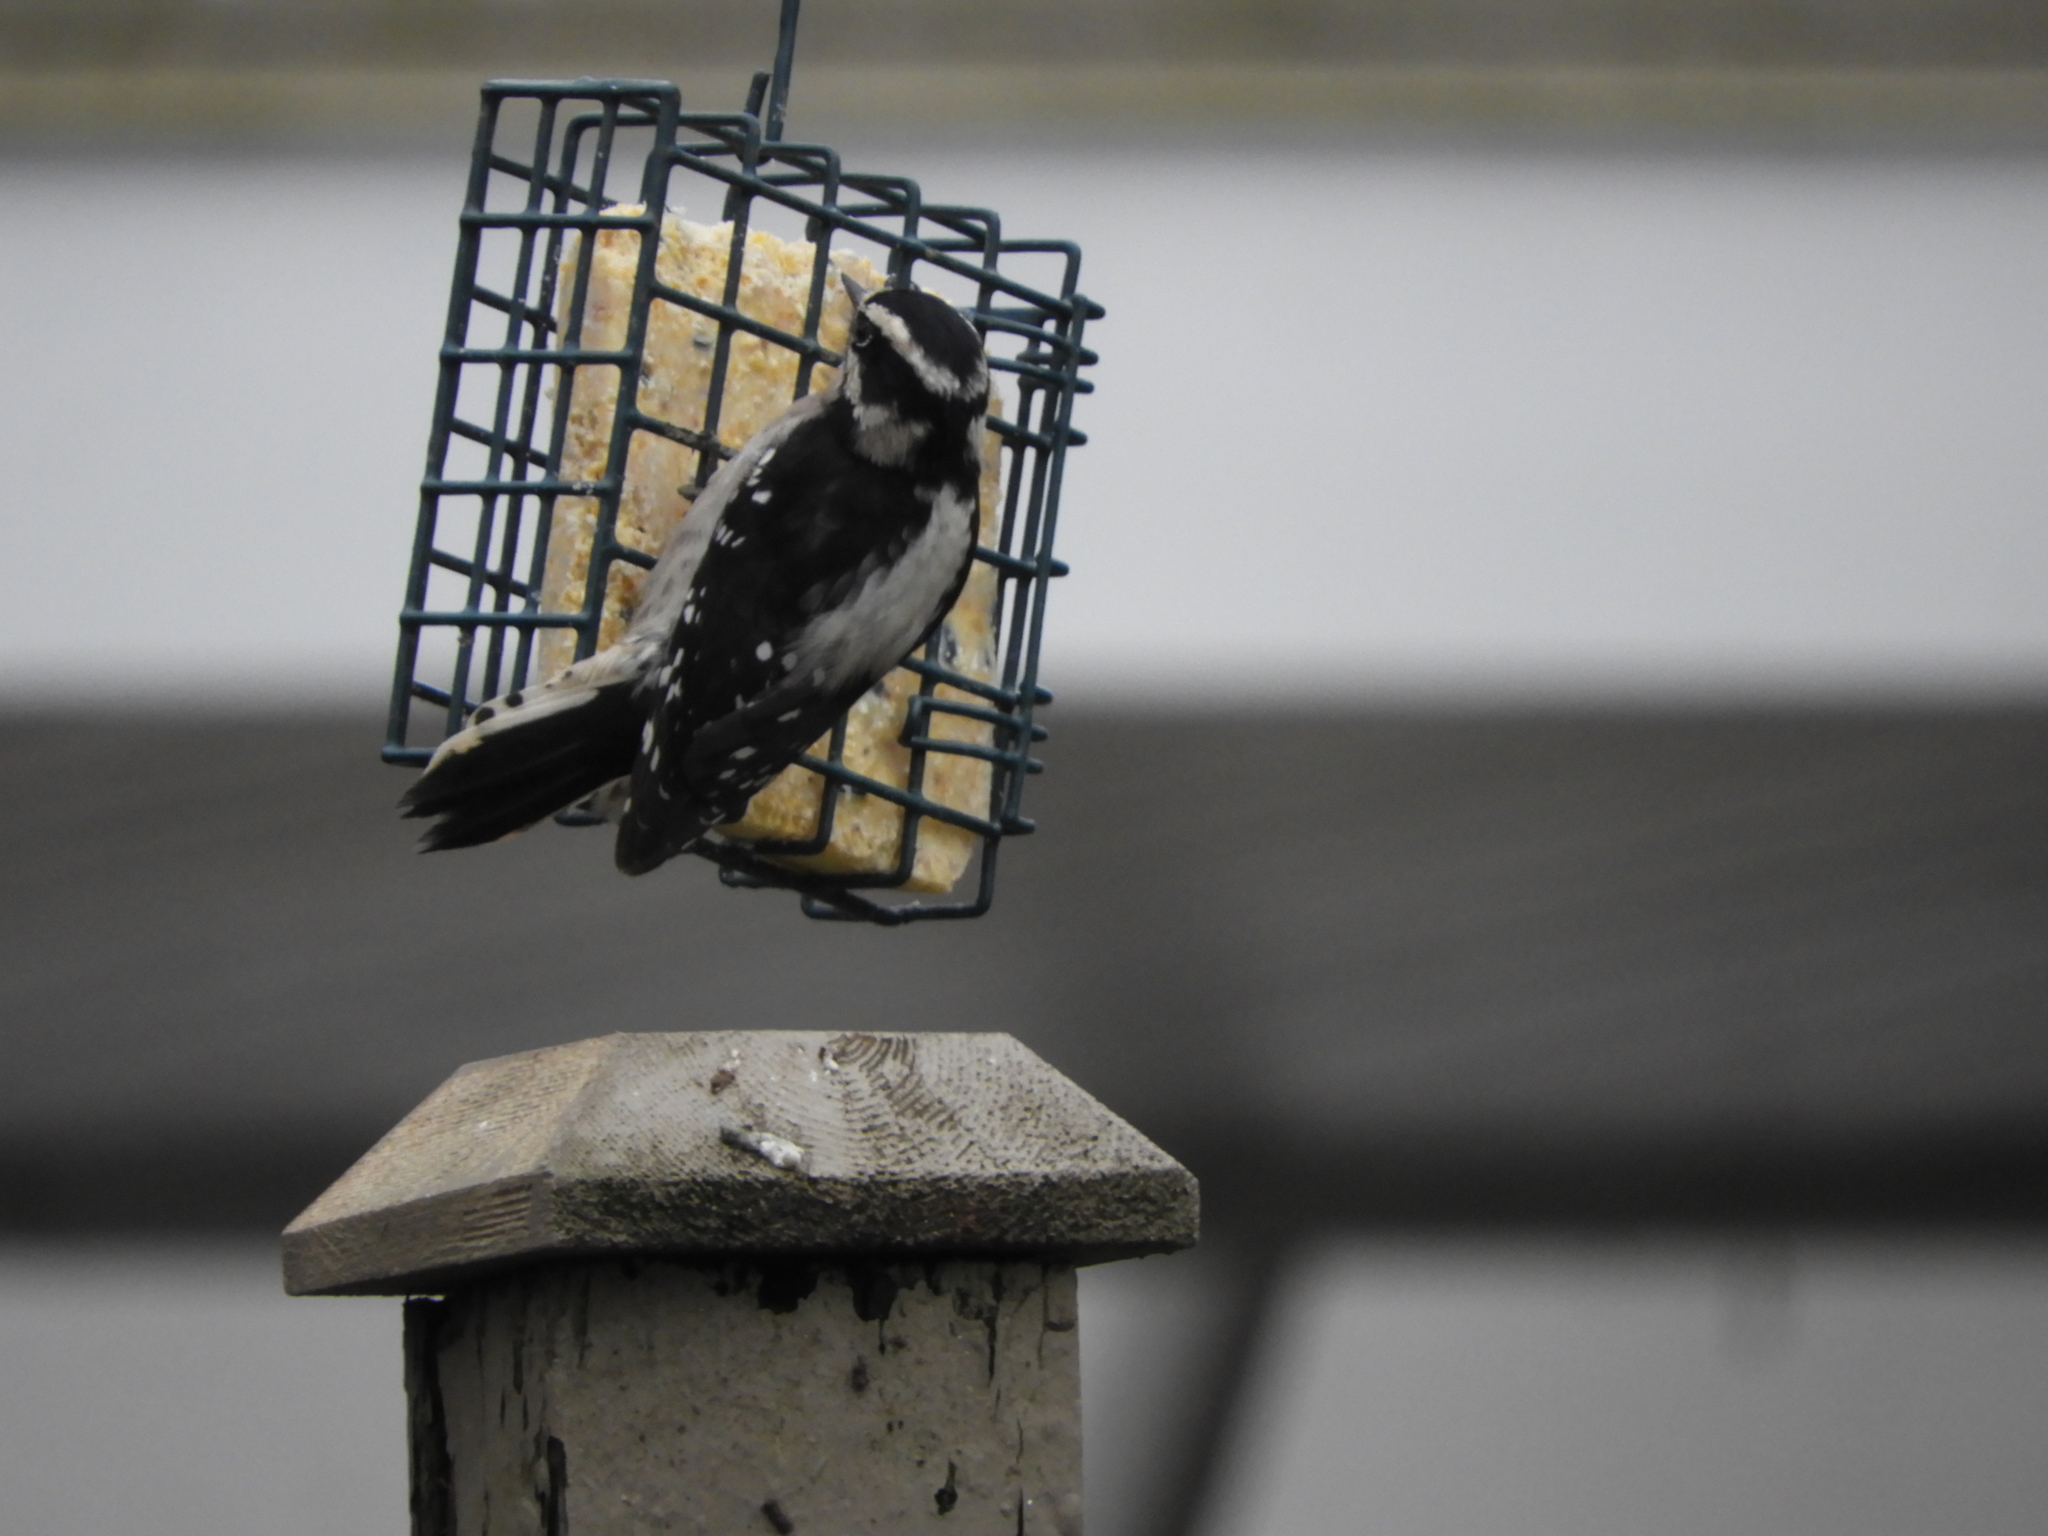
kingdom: Animalia
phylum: Chordata
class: Aves
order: Piciformes
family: Picidae
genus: Dryobates
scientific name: Dryobates pubescens
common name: Downy woodpecker
